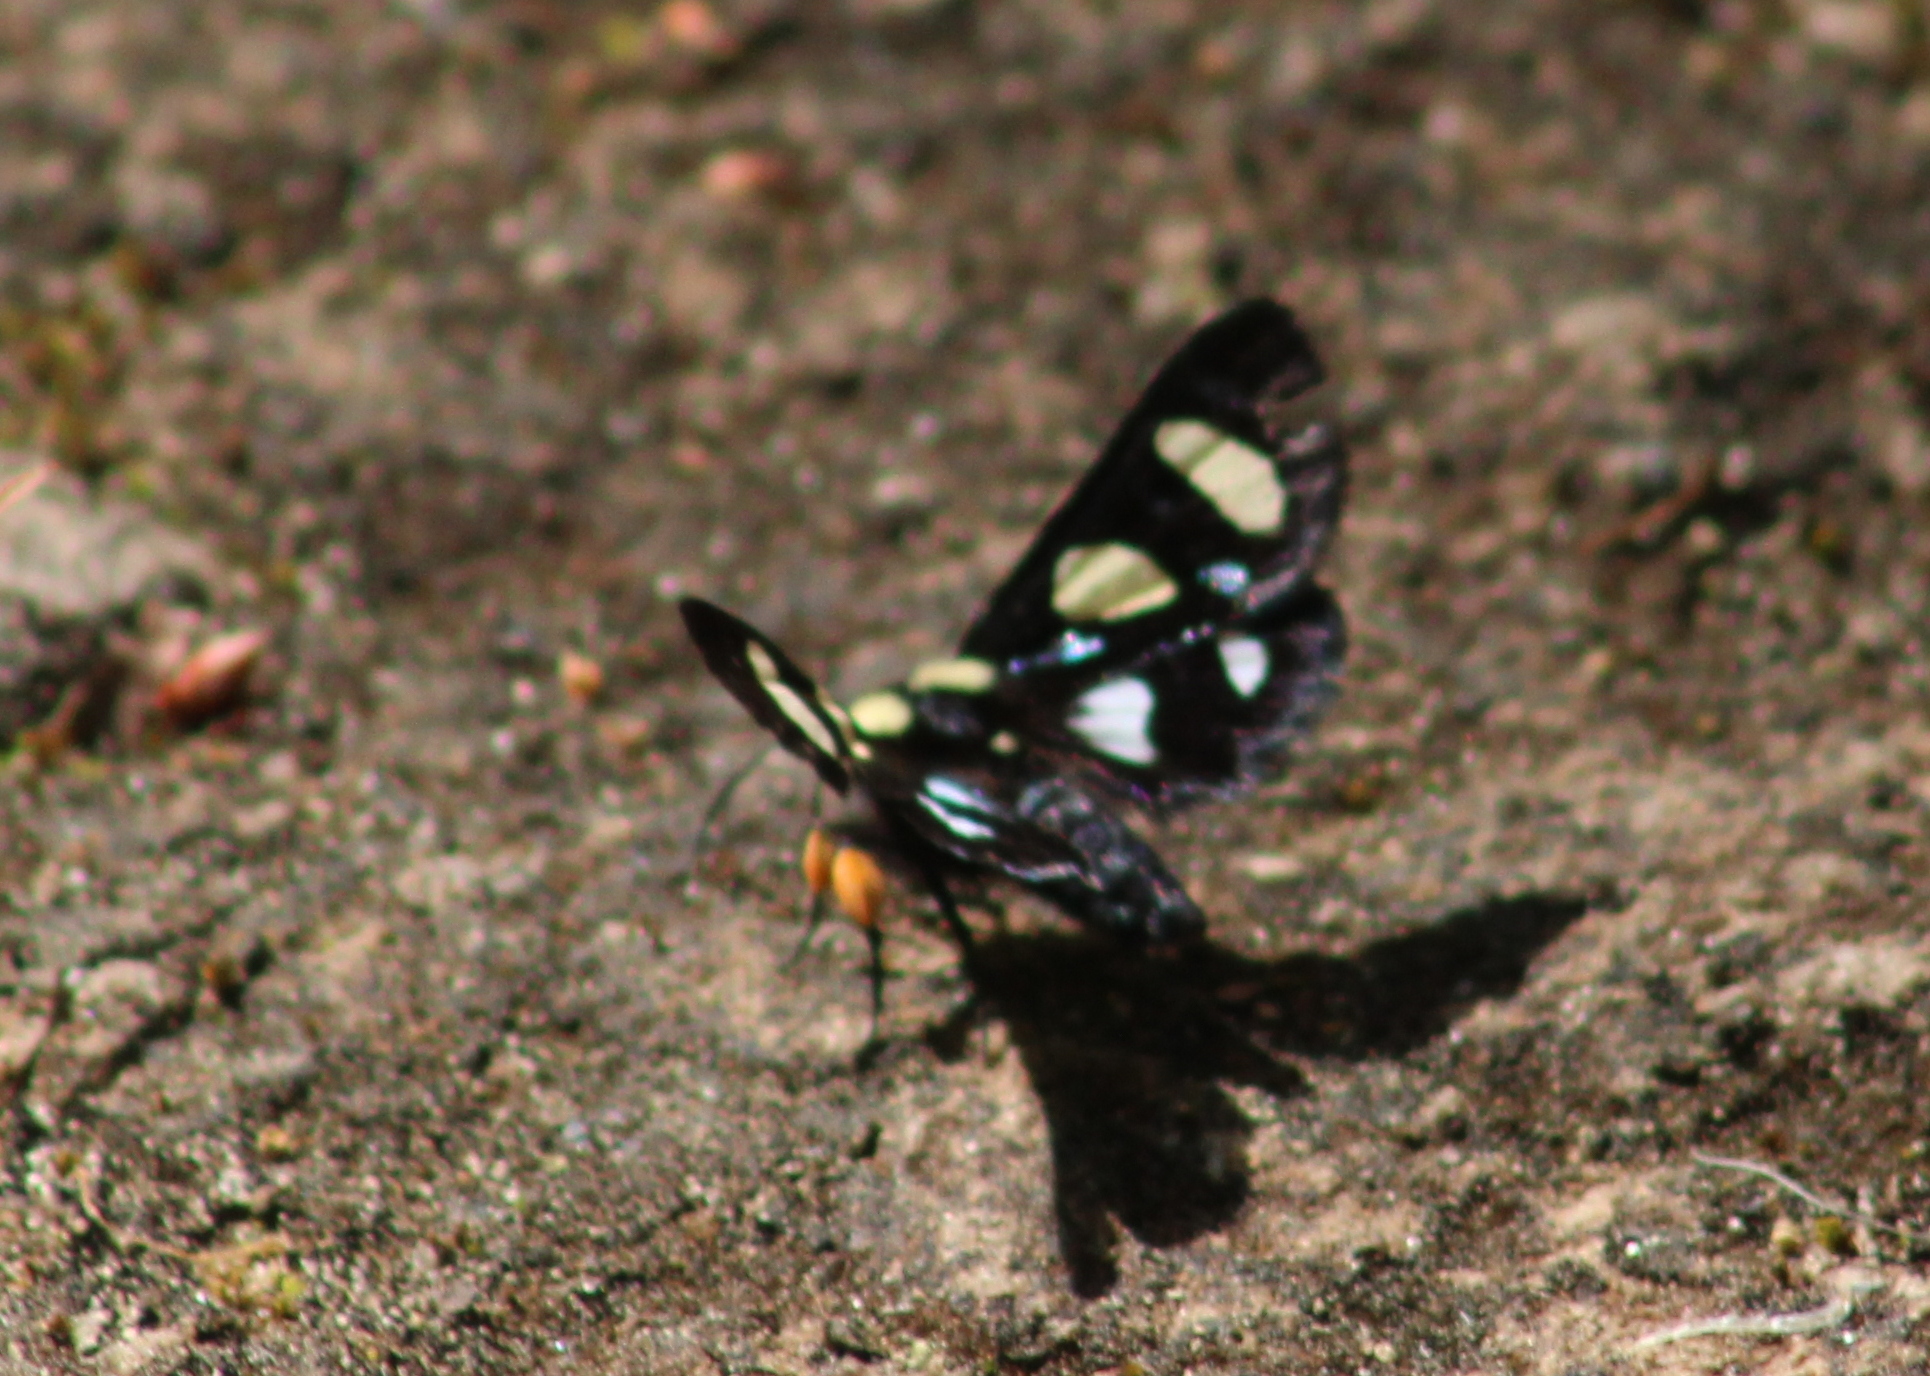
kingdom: Animalia
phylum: Arthropoda
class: Insecta
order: Lepidoptera
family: Noctuidae
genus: Alypia
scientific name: Alypia octomaculata
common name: Eight-spotted forester
